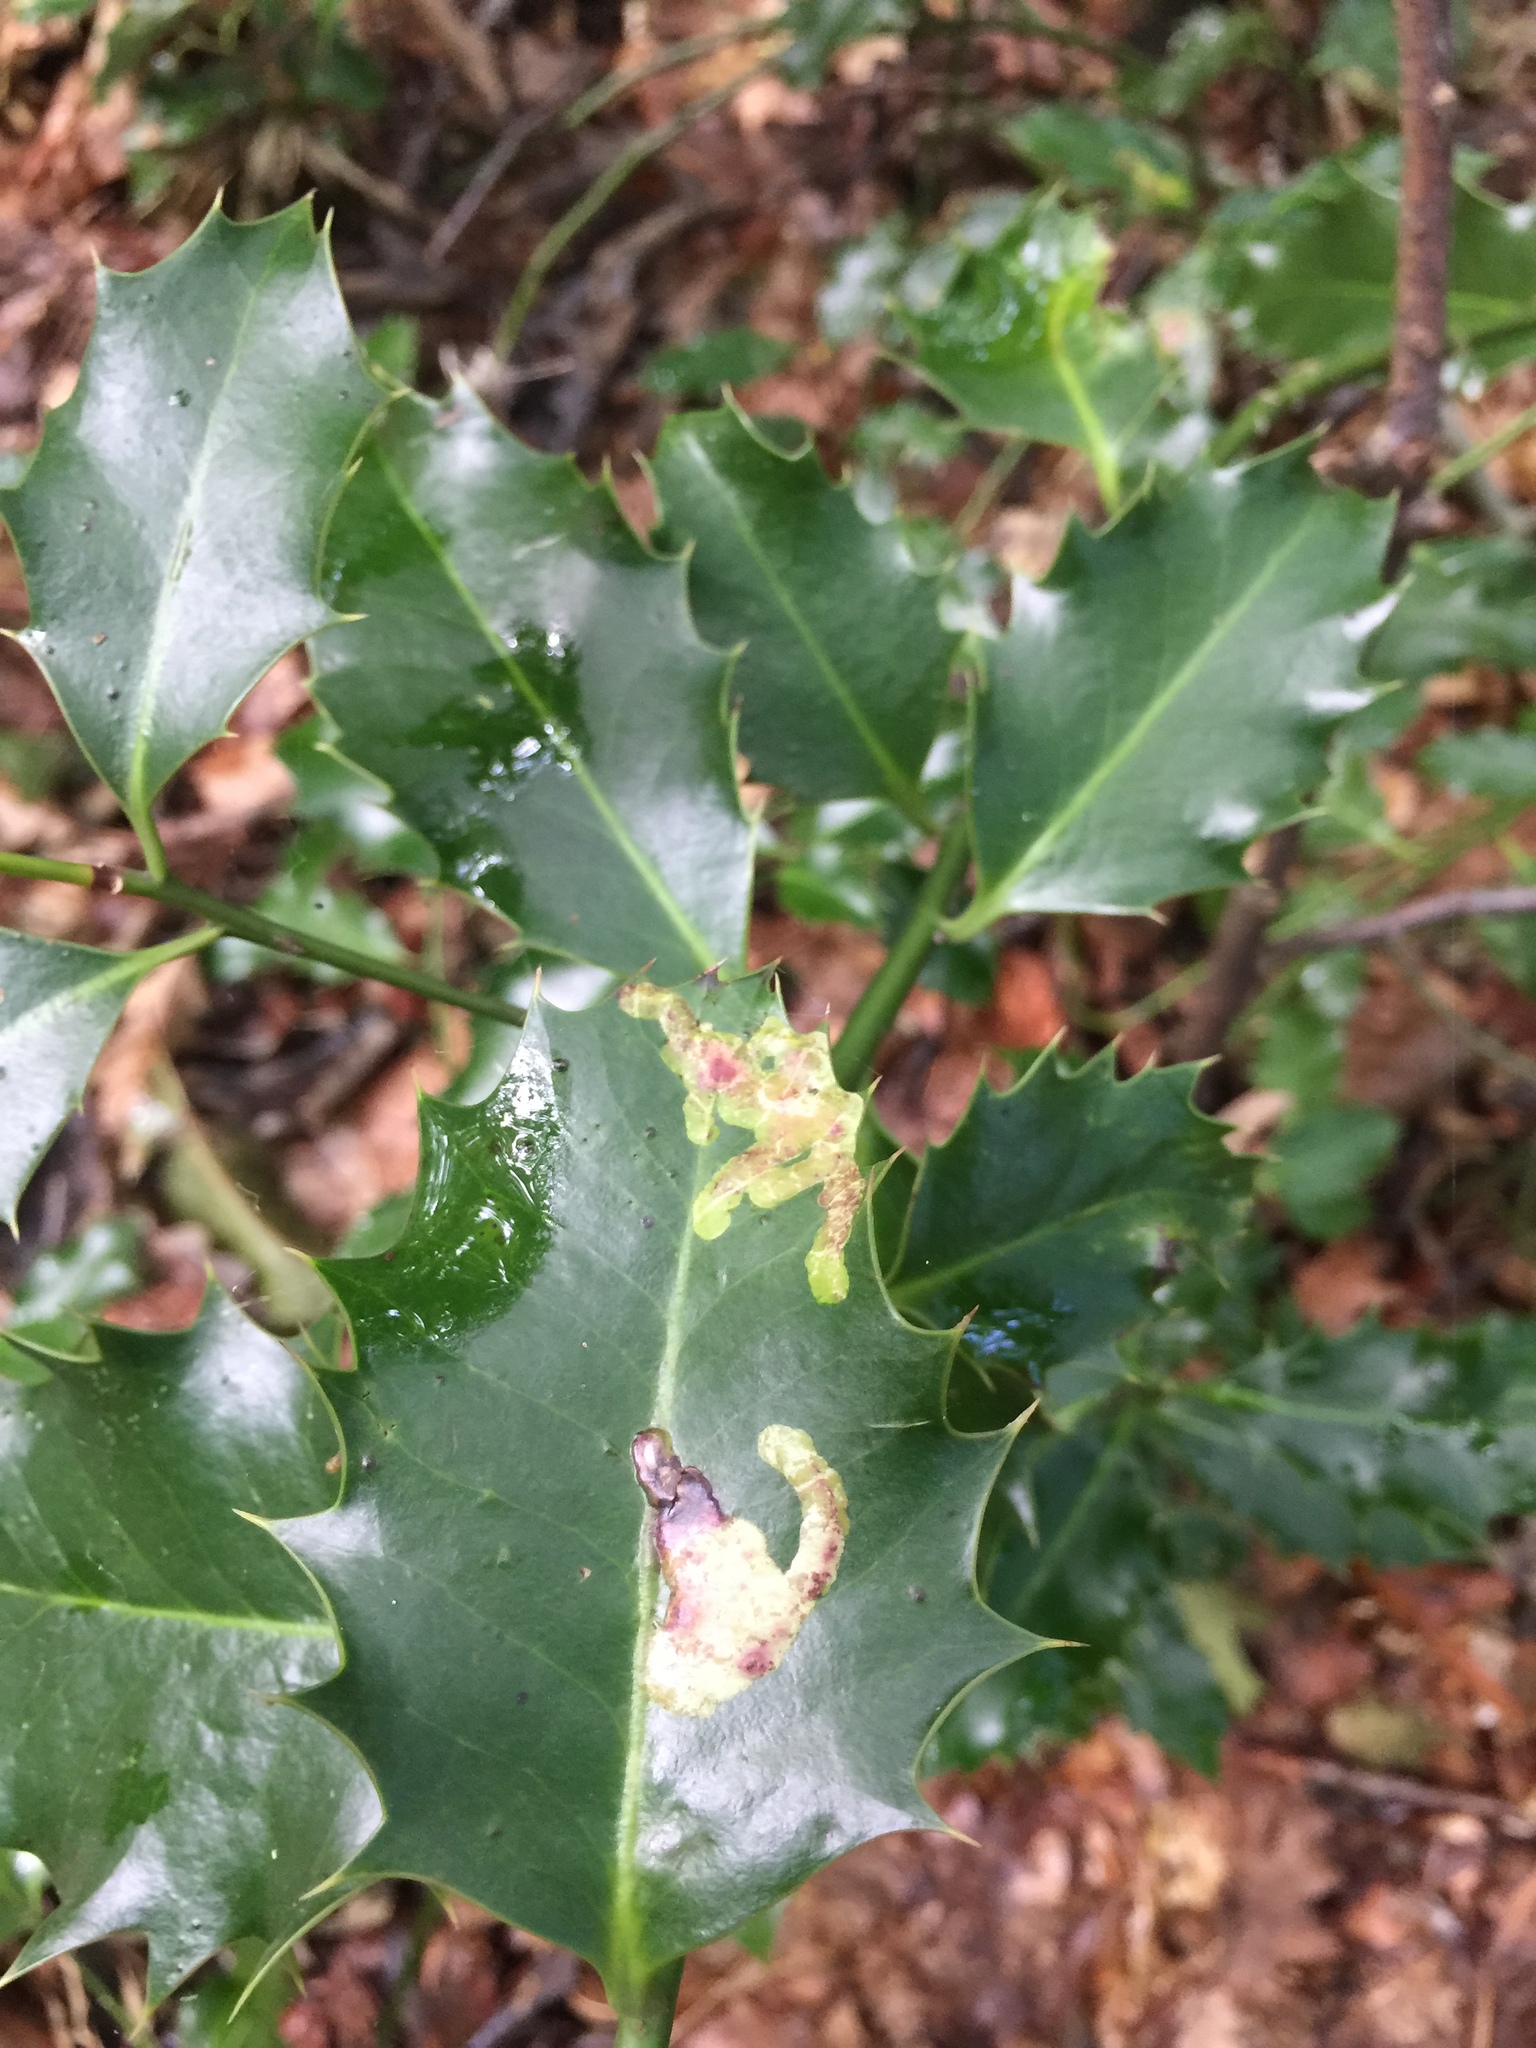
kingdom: Animalia
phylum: Arthropoda
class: Insecta
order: Diptera
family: Agromyzidae
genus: Phytomyza
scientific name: Phytomyza ilicis
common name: Holly leafminer
